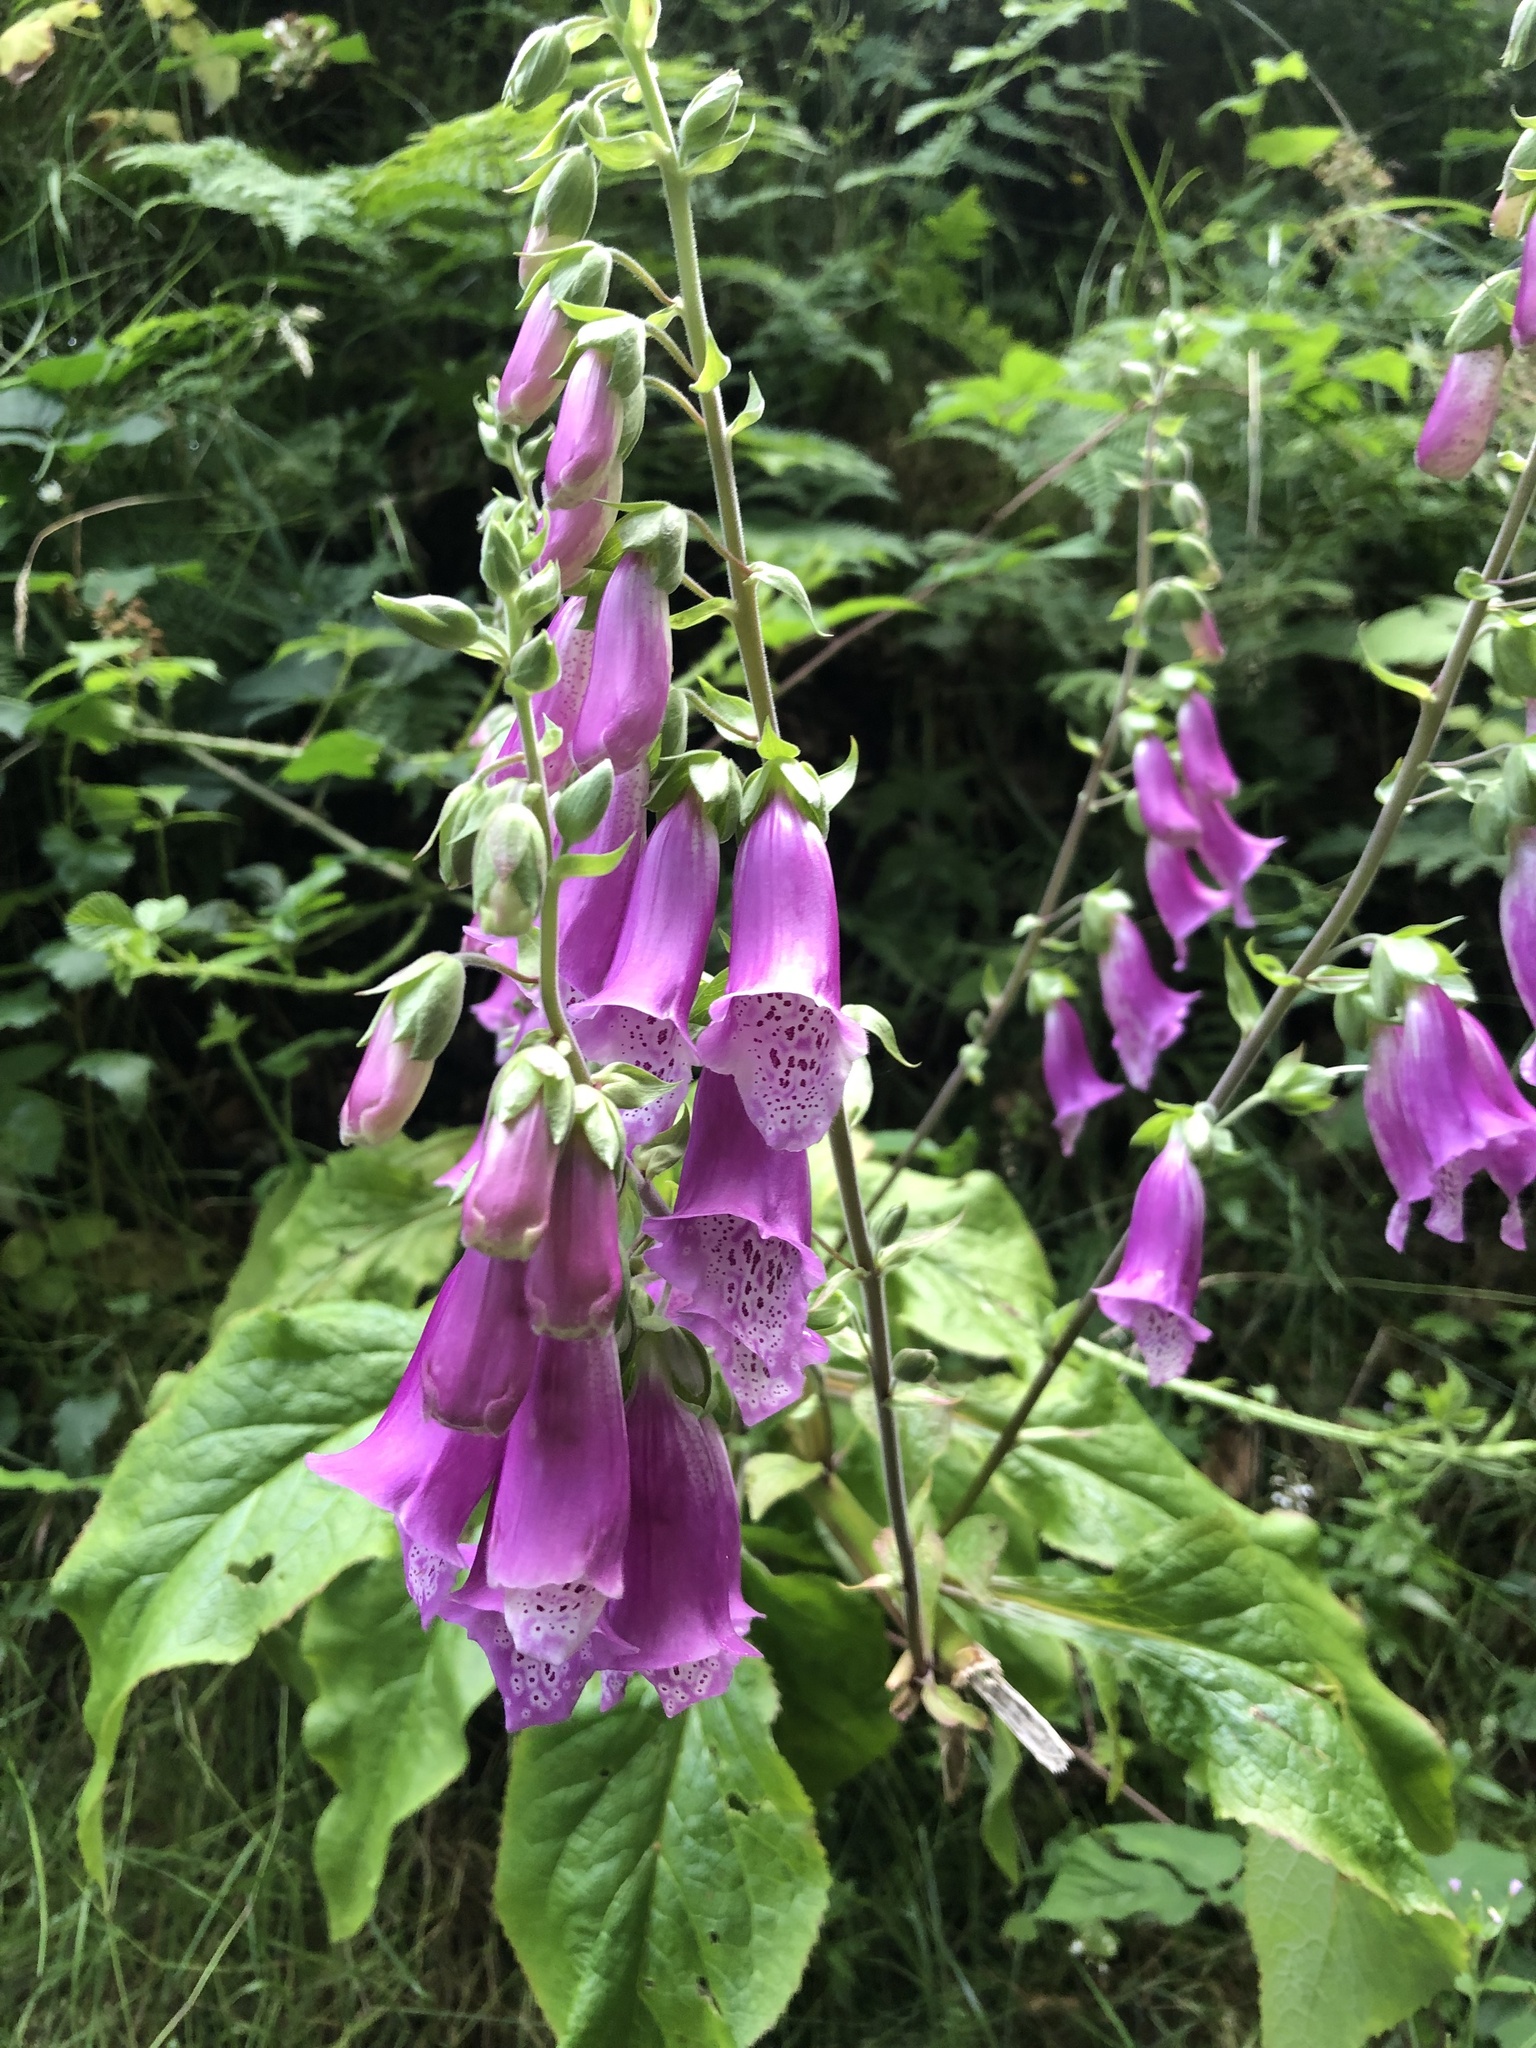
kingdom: Plantae
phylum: Tracheophyta
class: Magnoliopsida
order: Lamiales
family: Plantaginaceae
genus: Digitalis
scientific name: Digitalis purpurea
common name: Foxglove
